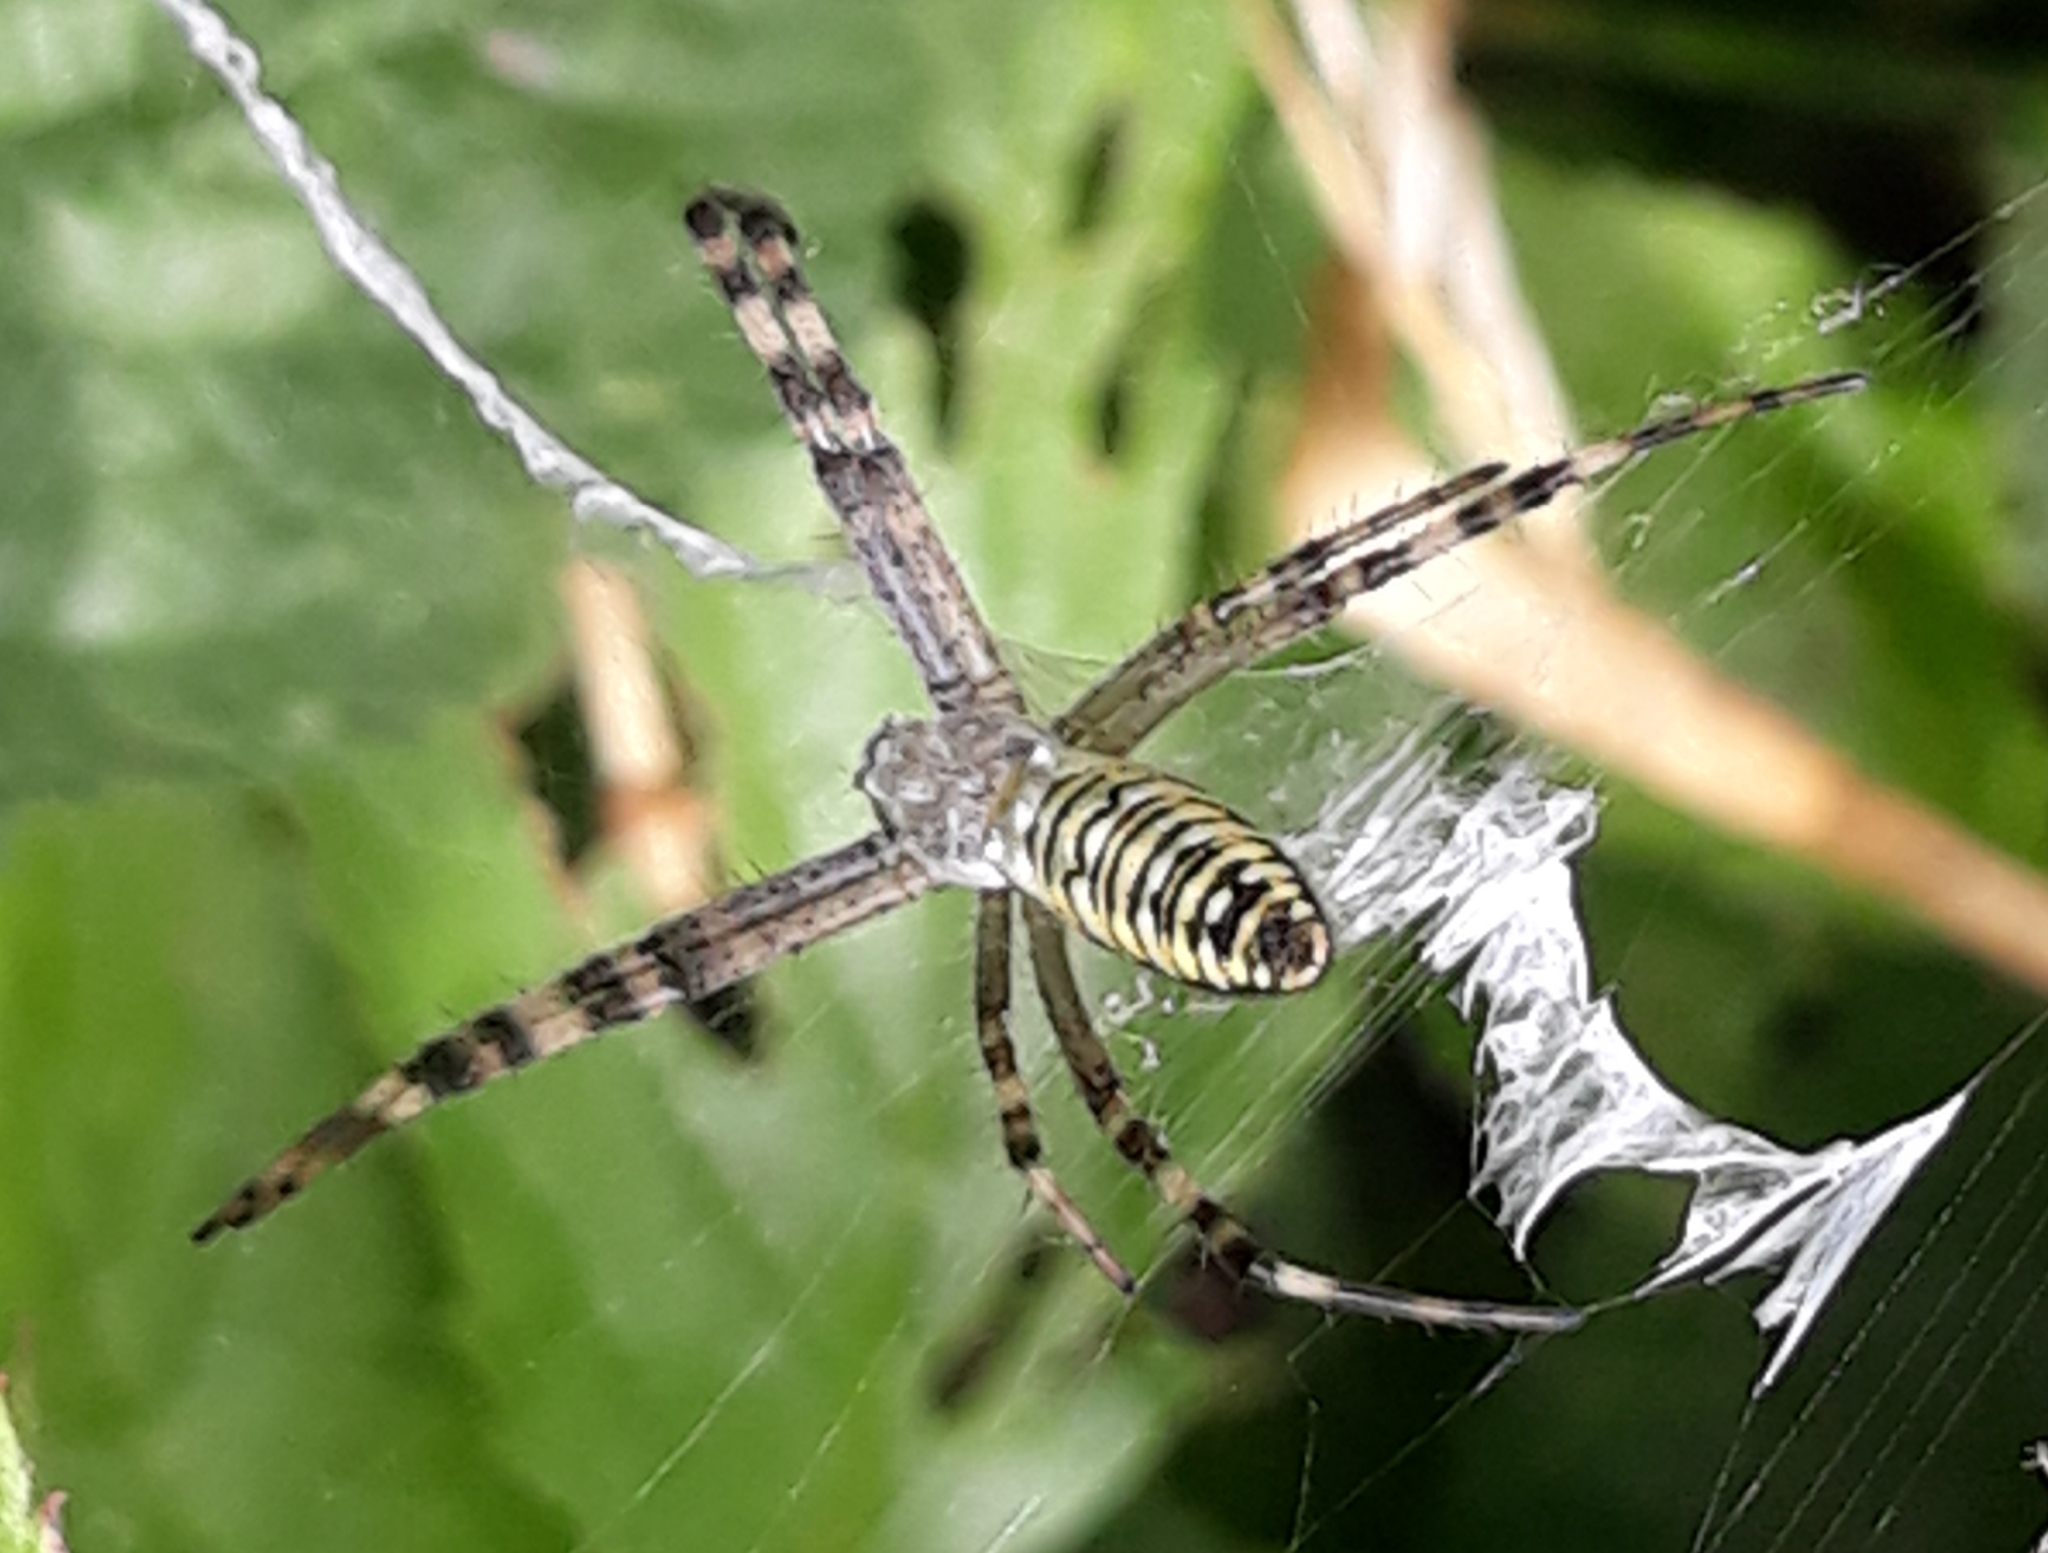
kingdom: Animalia
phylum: Arthropoda
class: Arachnida
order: Araneae
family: Araneidae
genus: Argiope
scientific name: Argiope bruennichi
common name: Wasp spider
